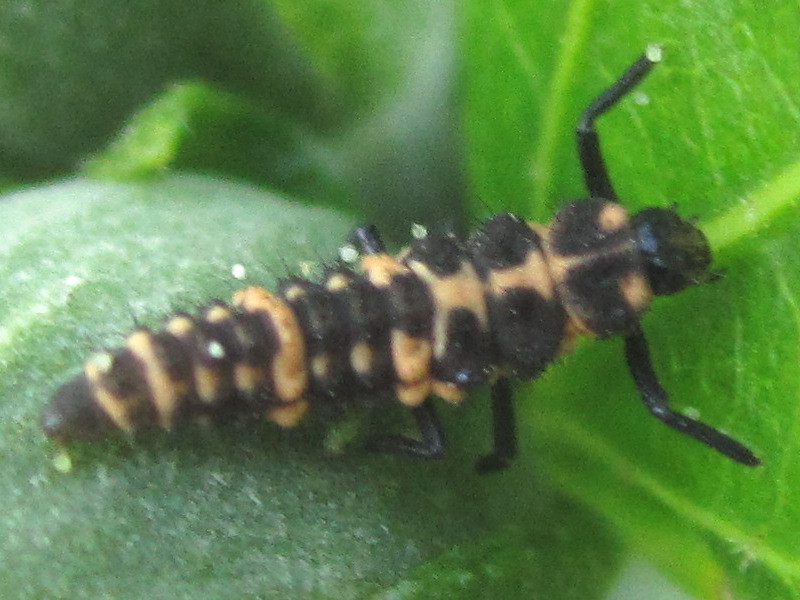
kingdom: Animalia
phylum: Arthropoda
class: Insecta
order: Coleoptera
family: Coccinellidae
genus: Coleomegilla
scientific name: Coleomegilla maculata
